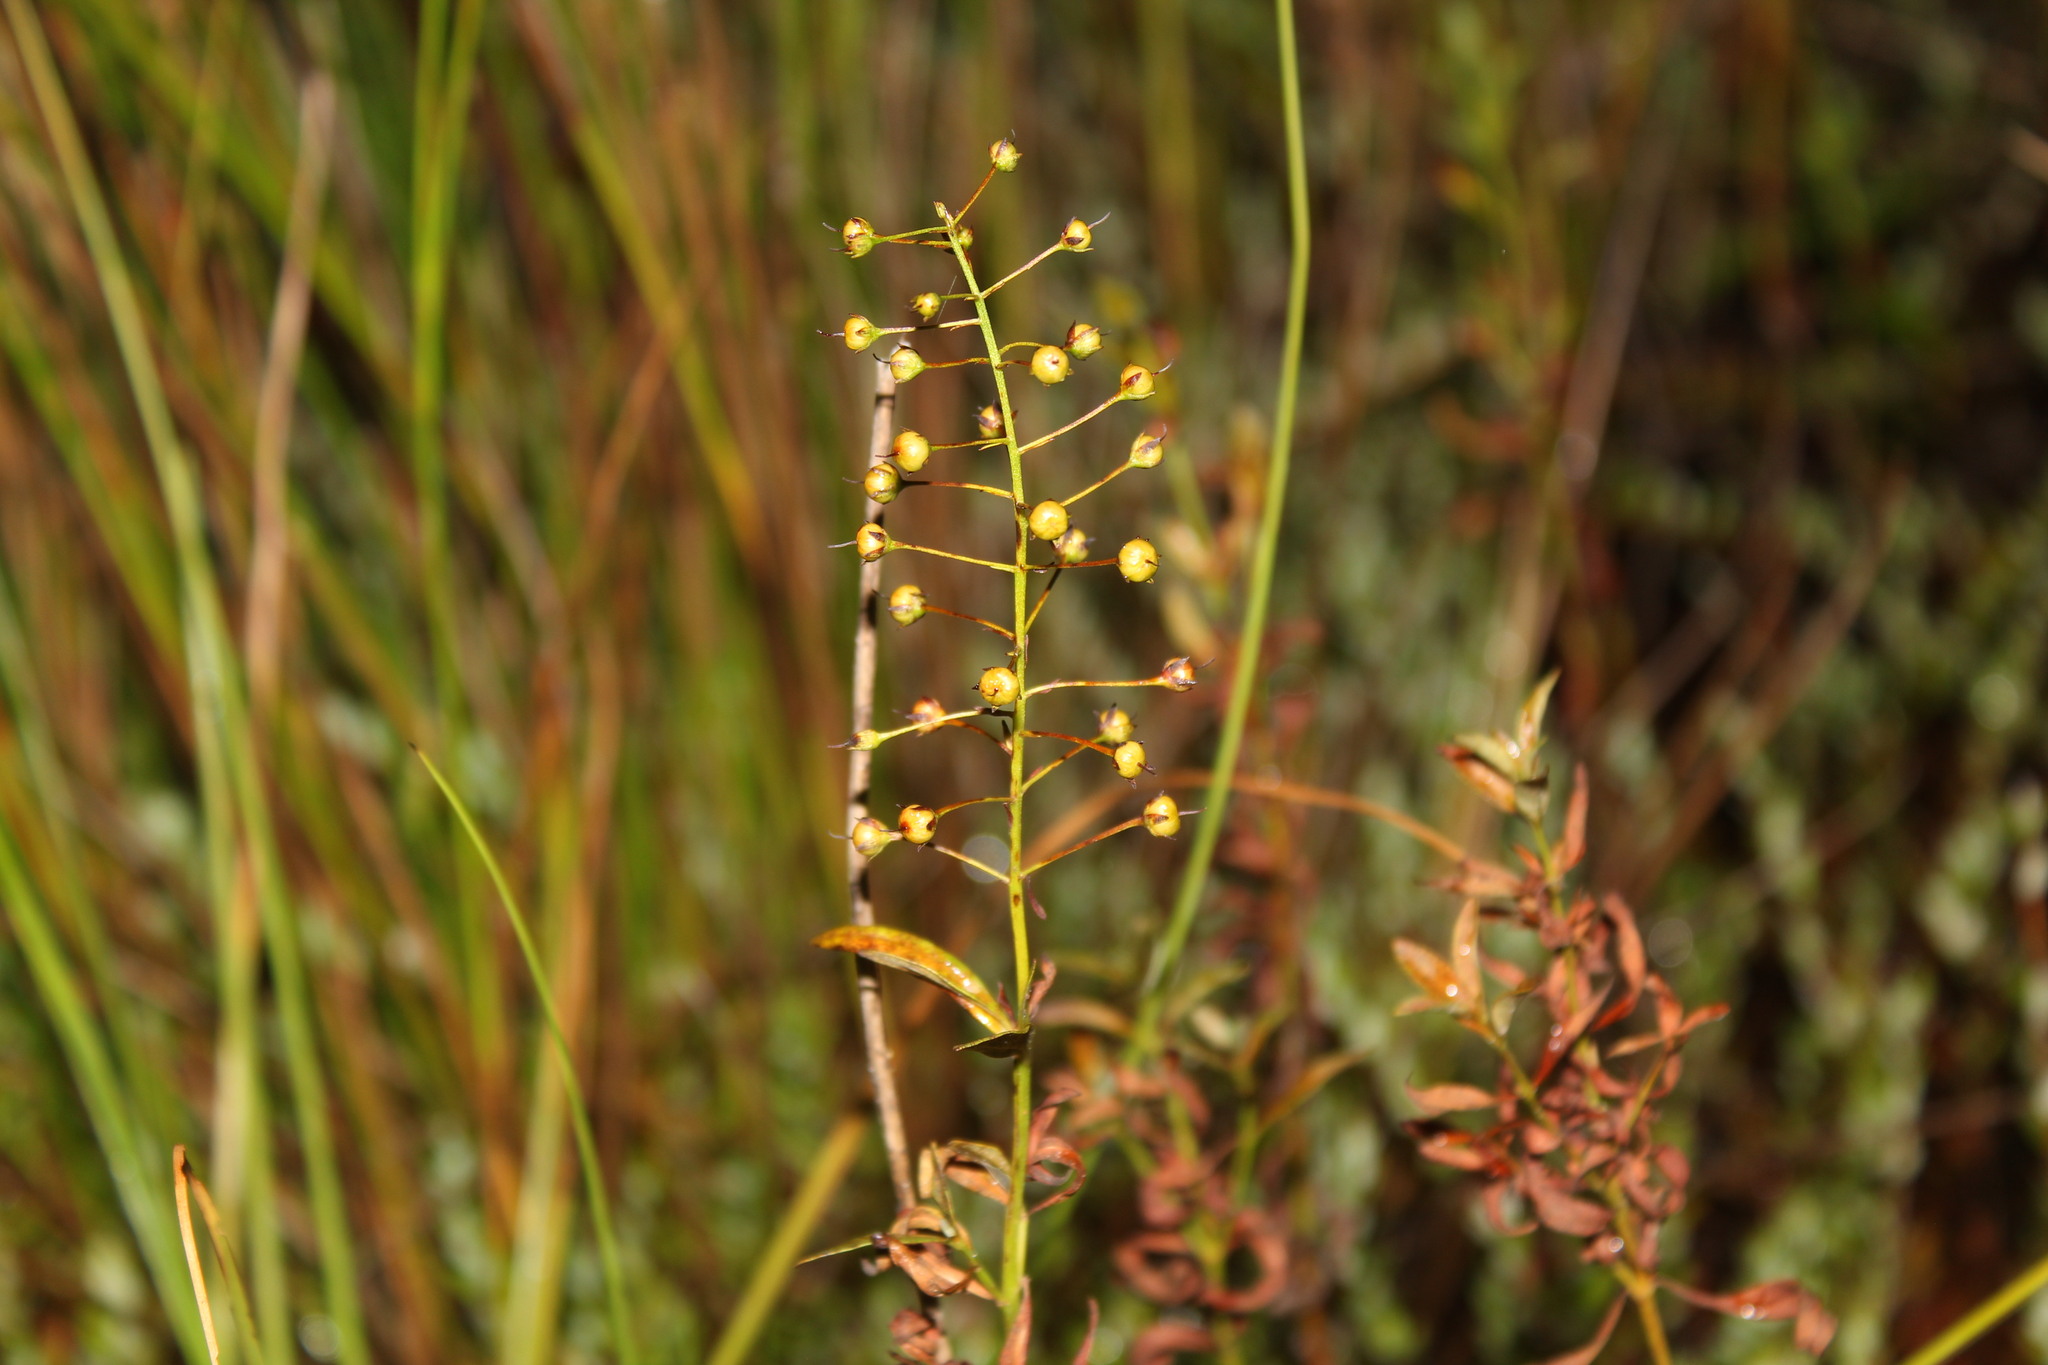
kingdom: Plantae
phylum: Tracheophyta
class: Magnoliopsida
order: Ericales
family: Primulaceae
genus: Lysimachia
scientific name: Lysimachia terrestris
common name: Lake loosestrife
